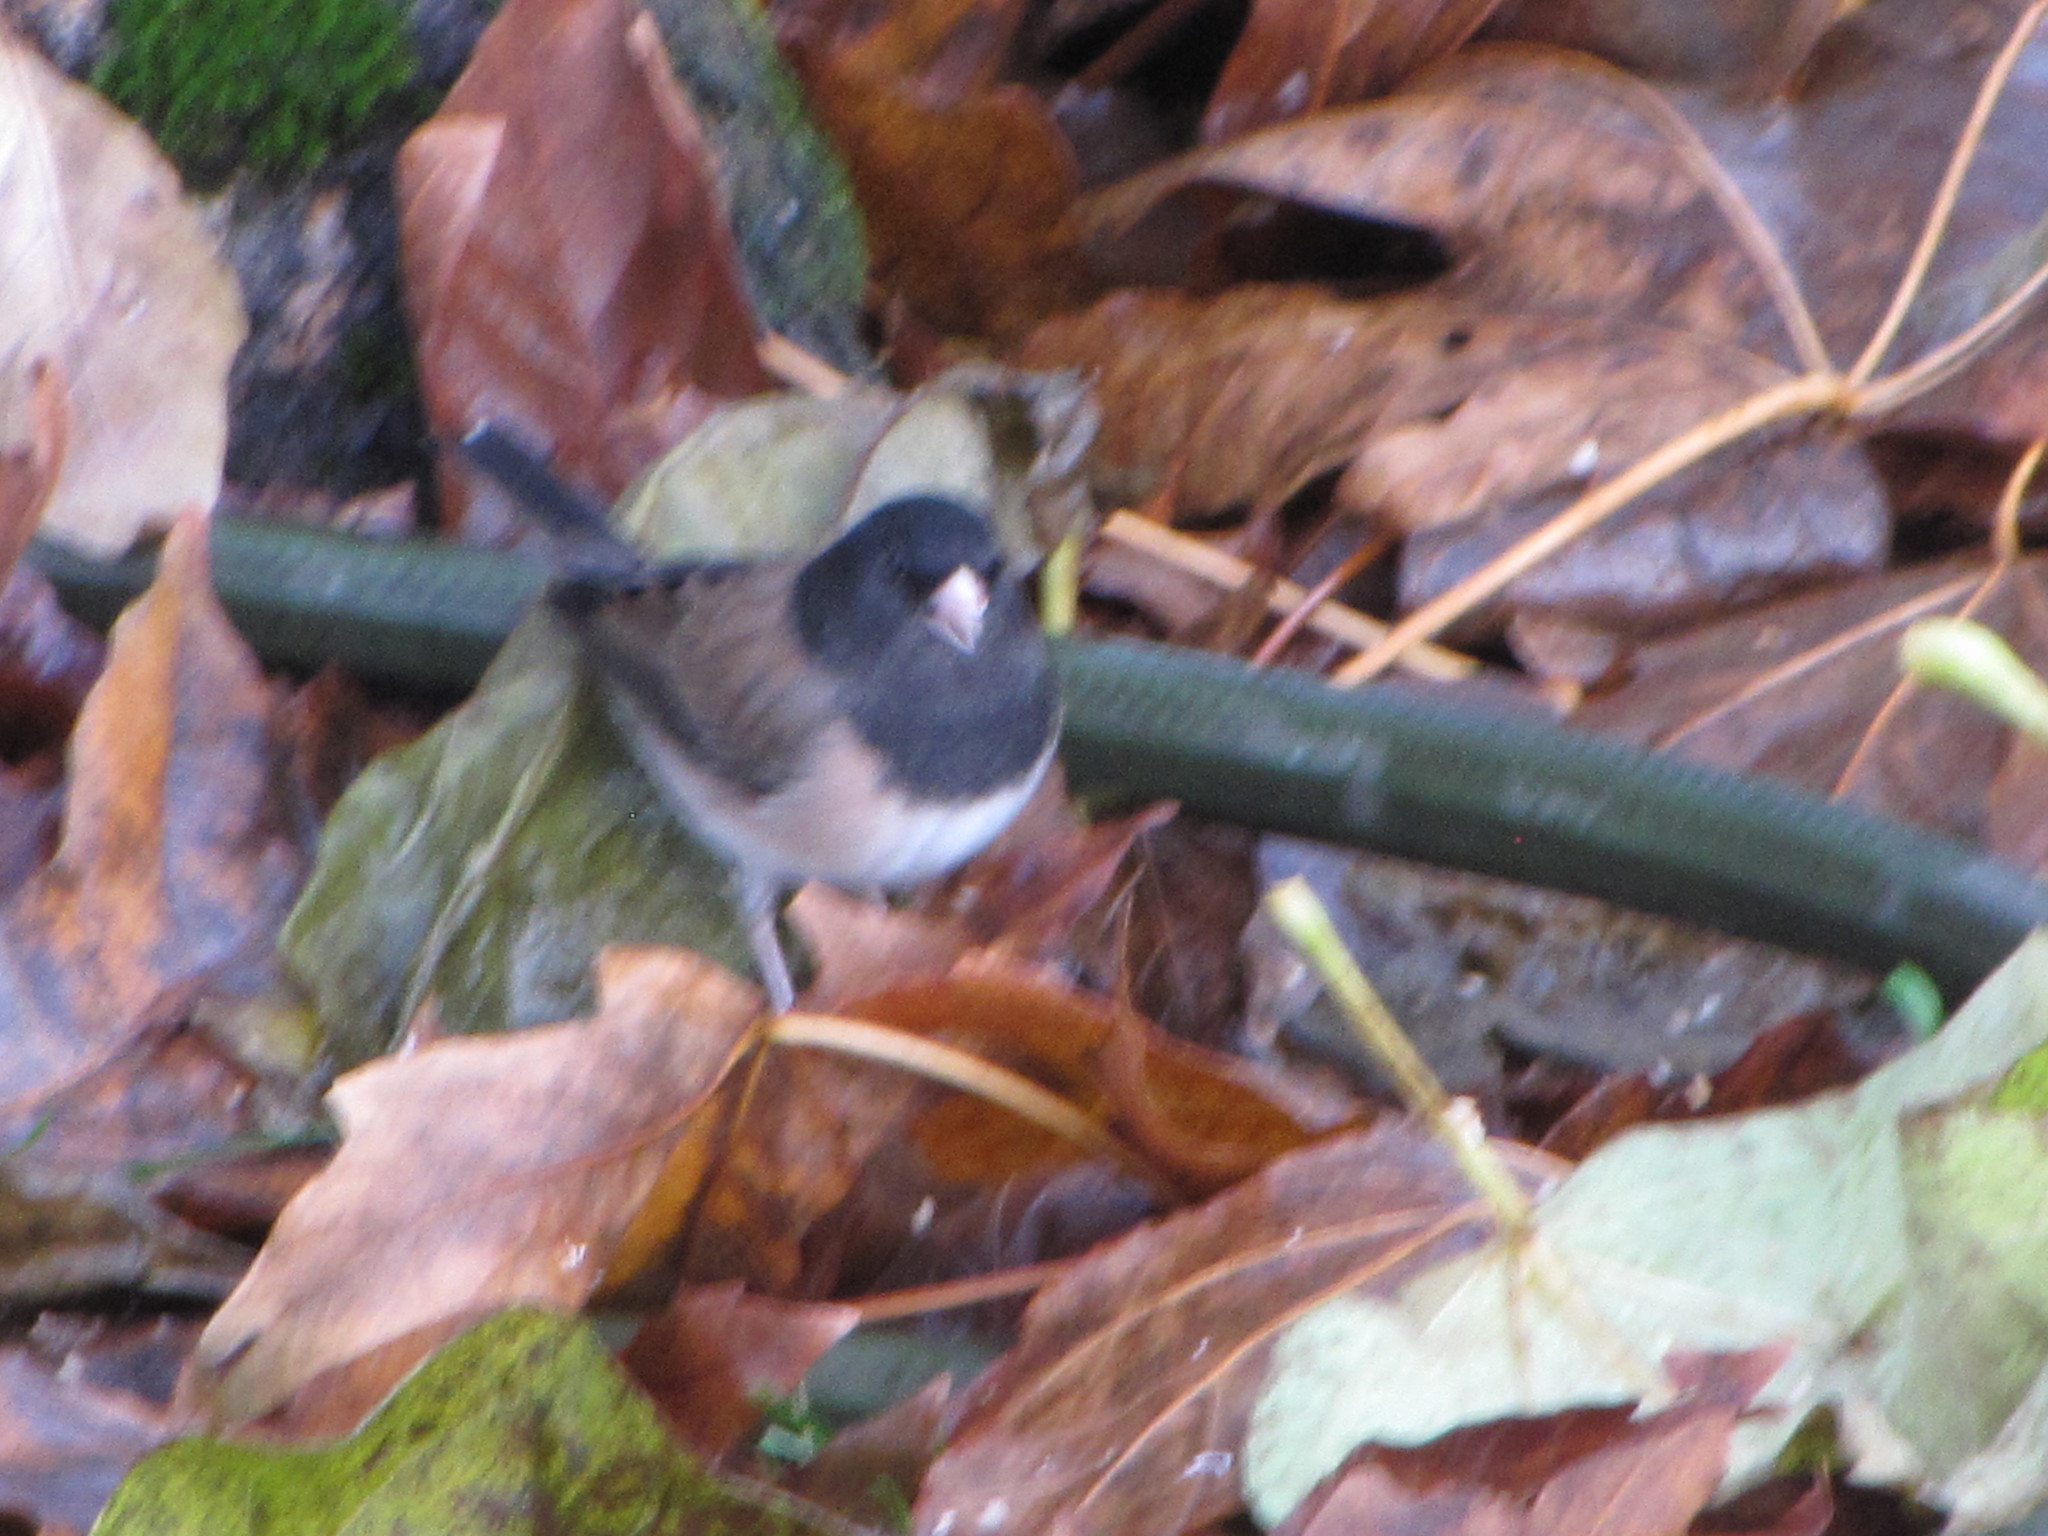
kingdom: Animalia
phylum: Chordata
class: Aves
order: Passeriformes
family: Passerellidae
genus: Junco
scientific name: Junco hyemalis
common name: Dark-eyed junco
